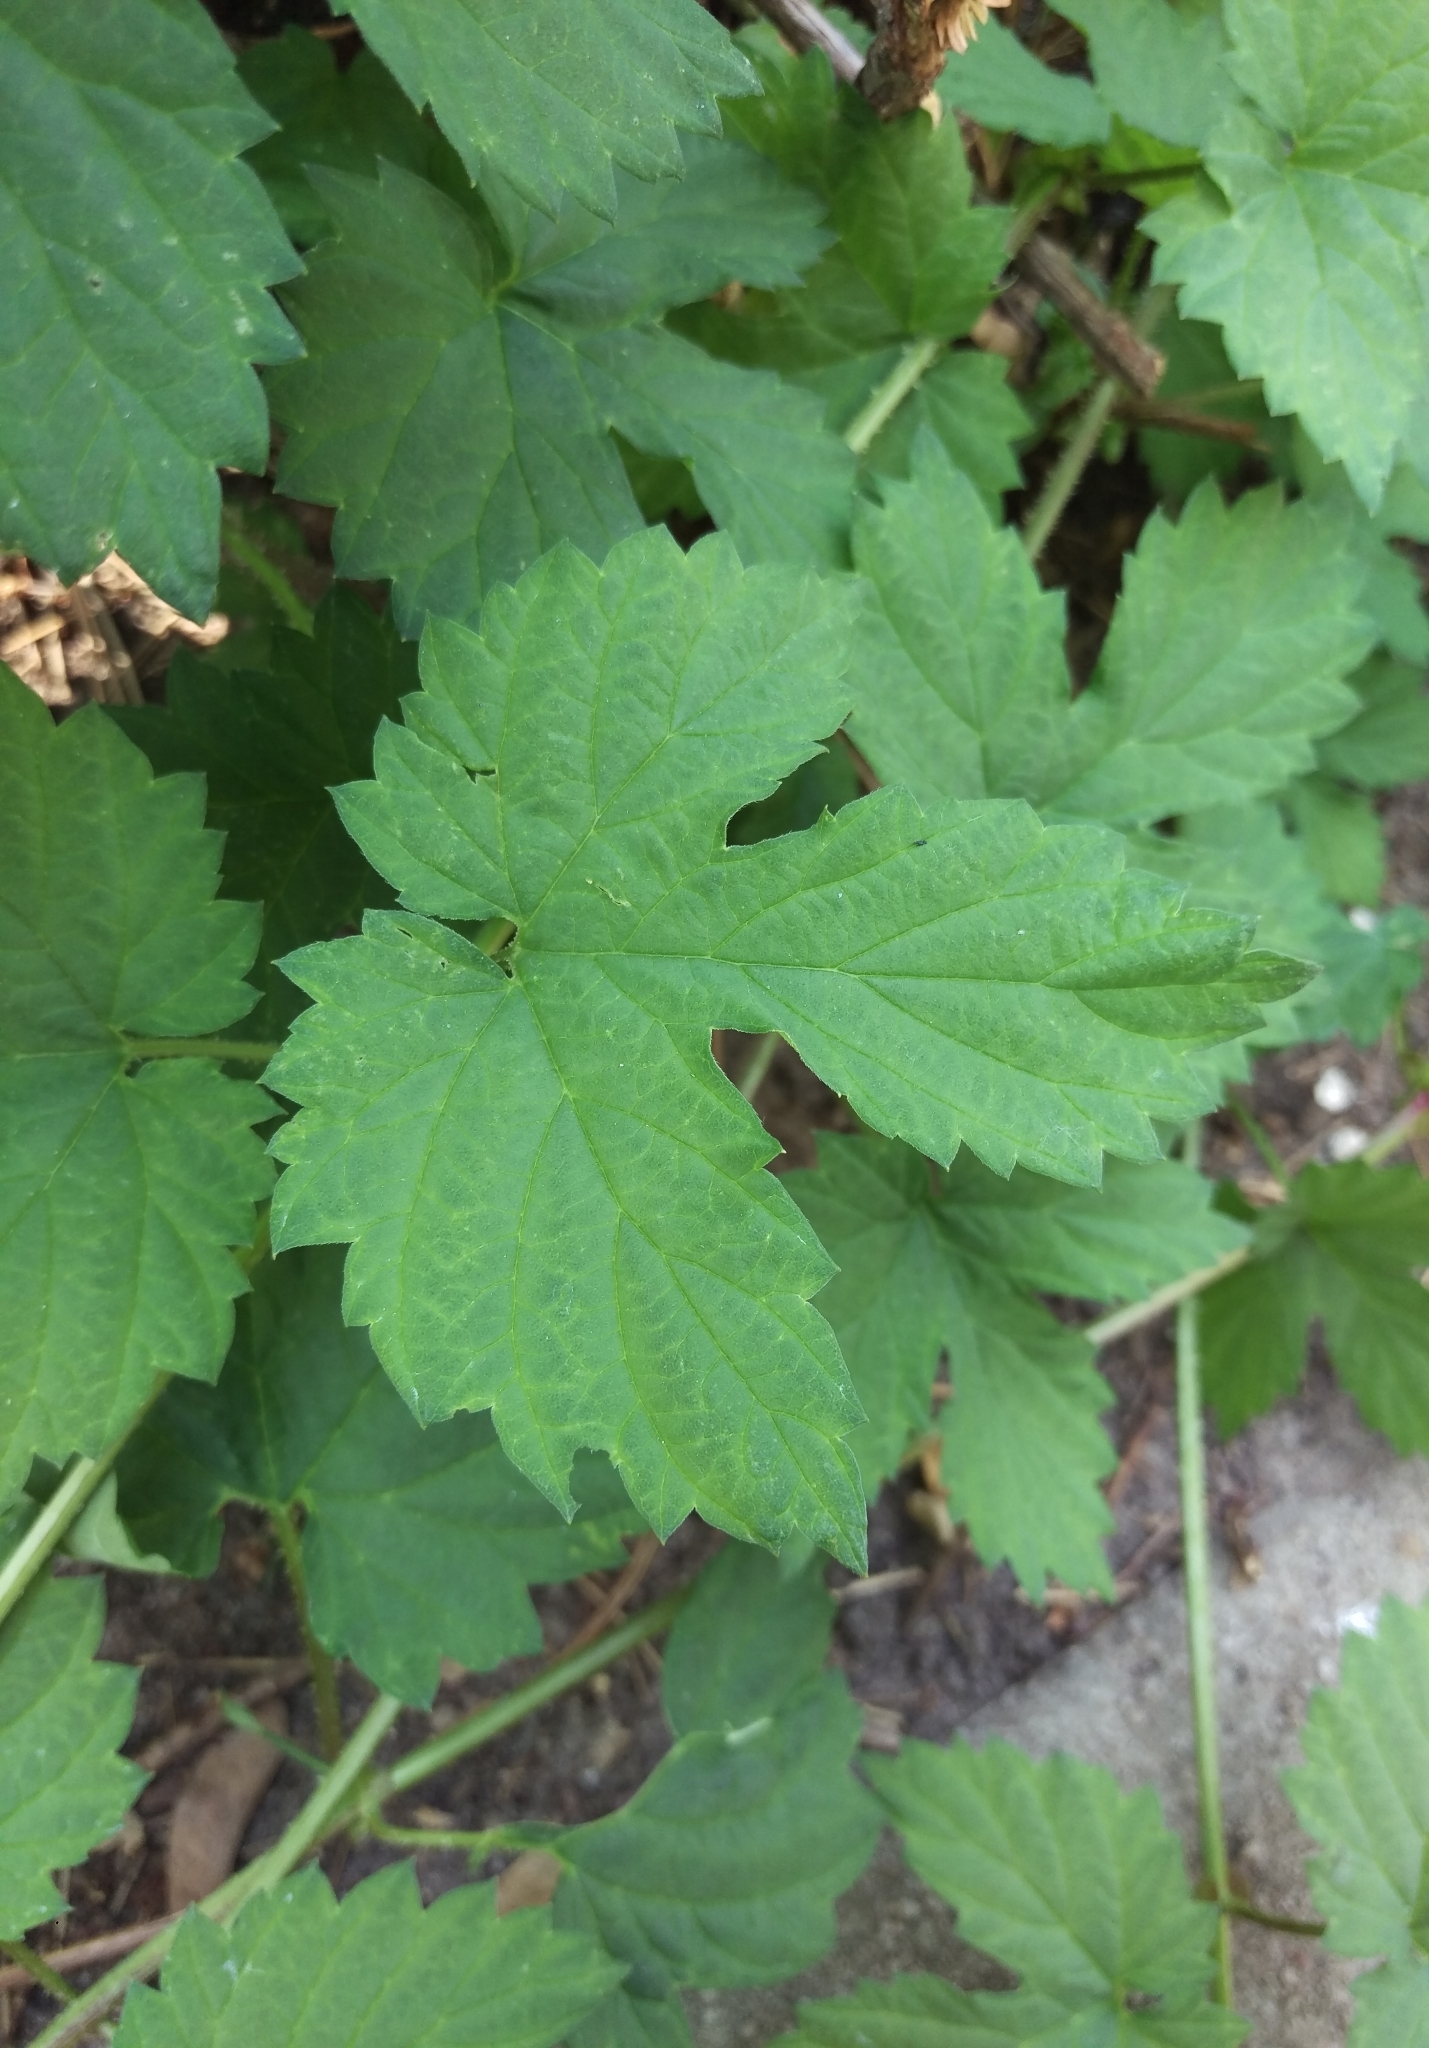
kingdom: Plantae
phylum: Tracheophyta
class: Magnoliopsida
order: Rosales
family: Cannabaceae
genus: Humulus
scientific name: Humulus lupulus
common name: Hop
